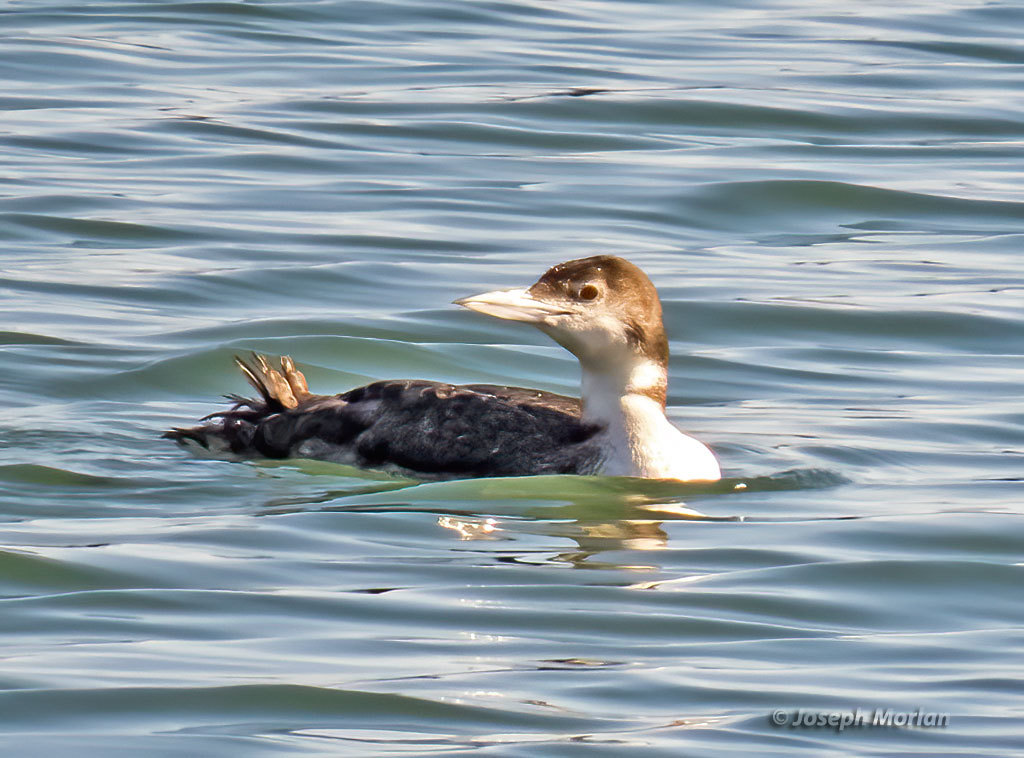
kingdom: Animalia
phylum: Chordata
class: Aves
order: Gaviiformes
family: Gaviidae
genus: Gavia
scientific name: Gavia immer
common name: Common loon
